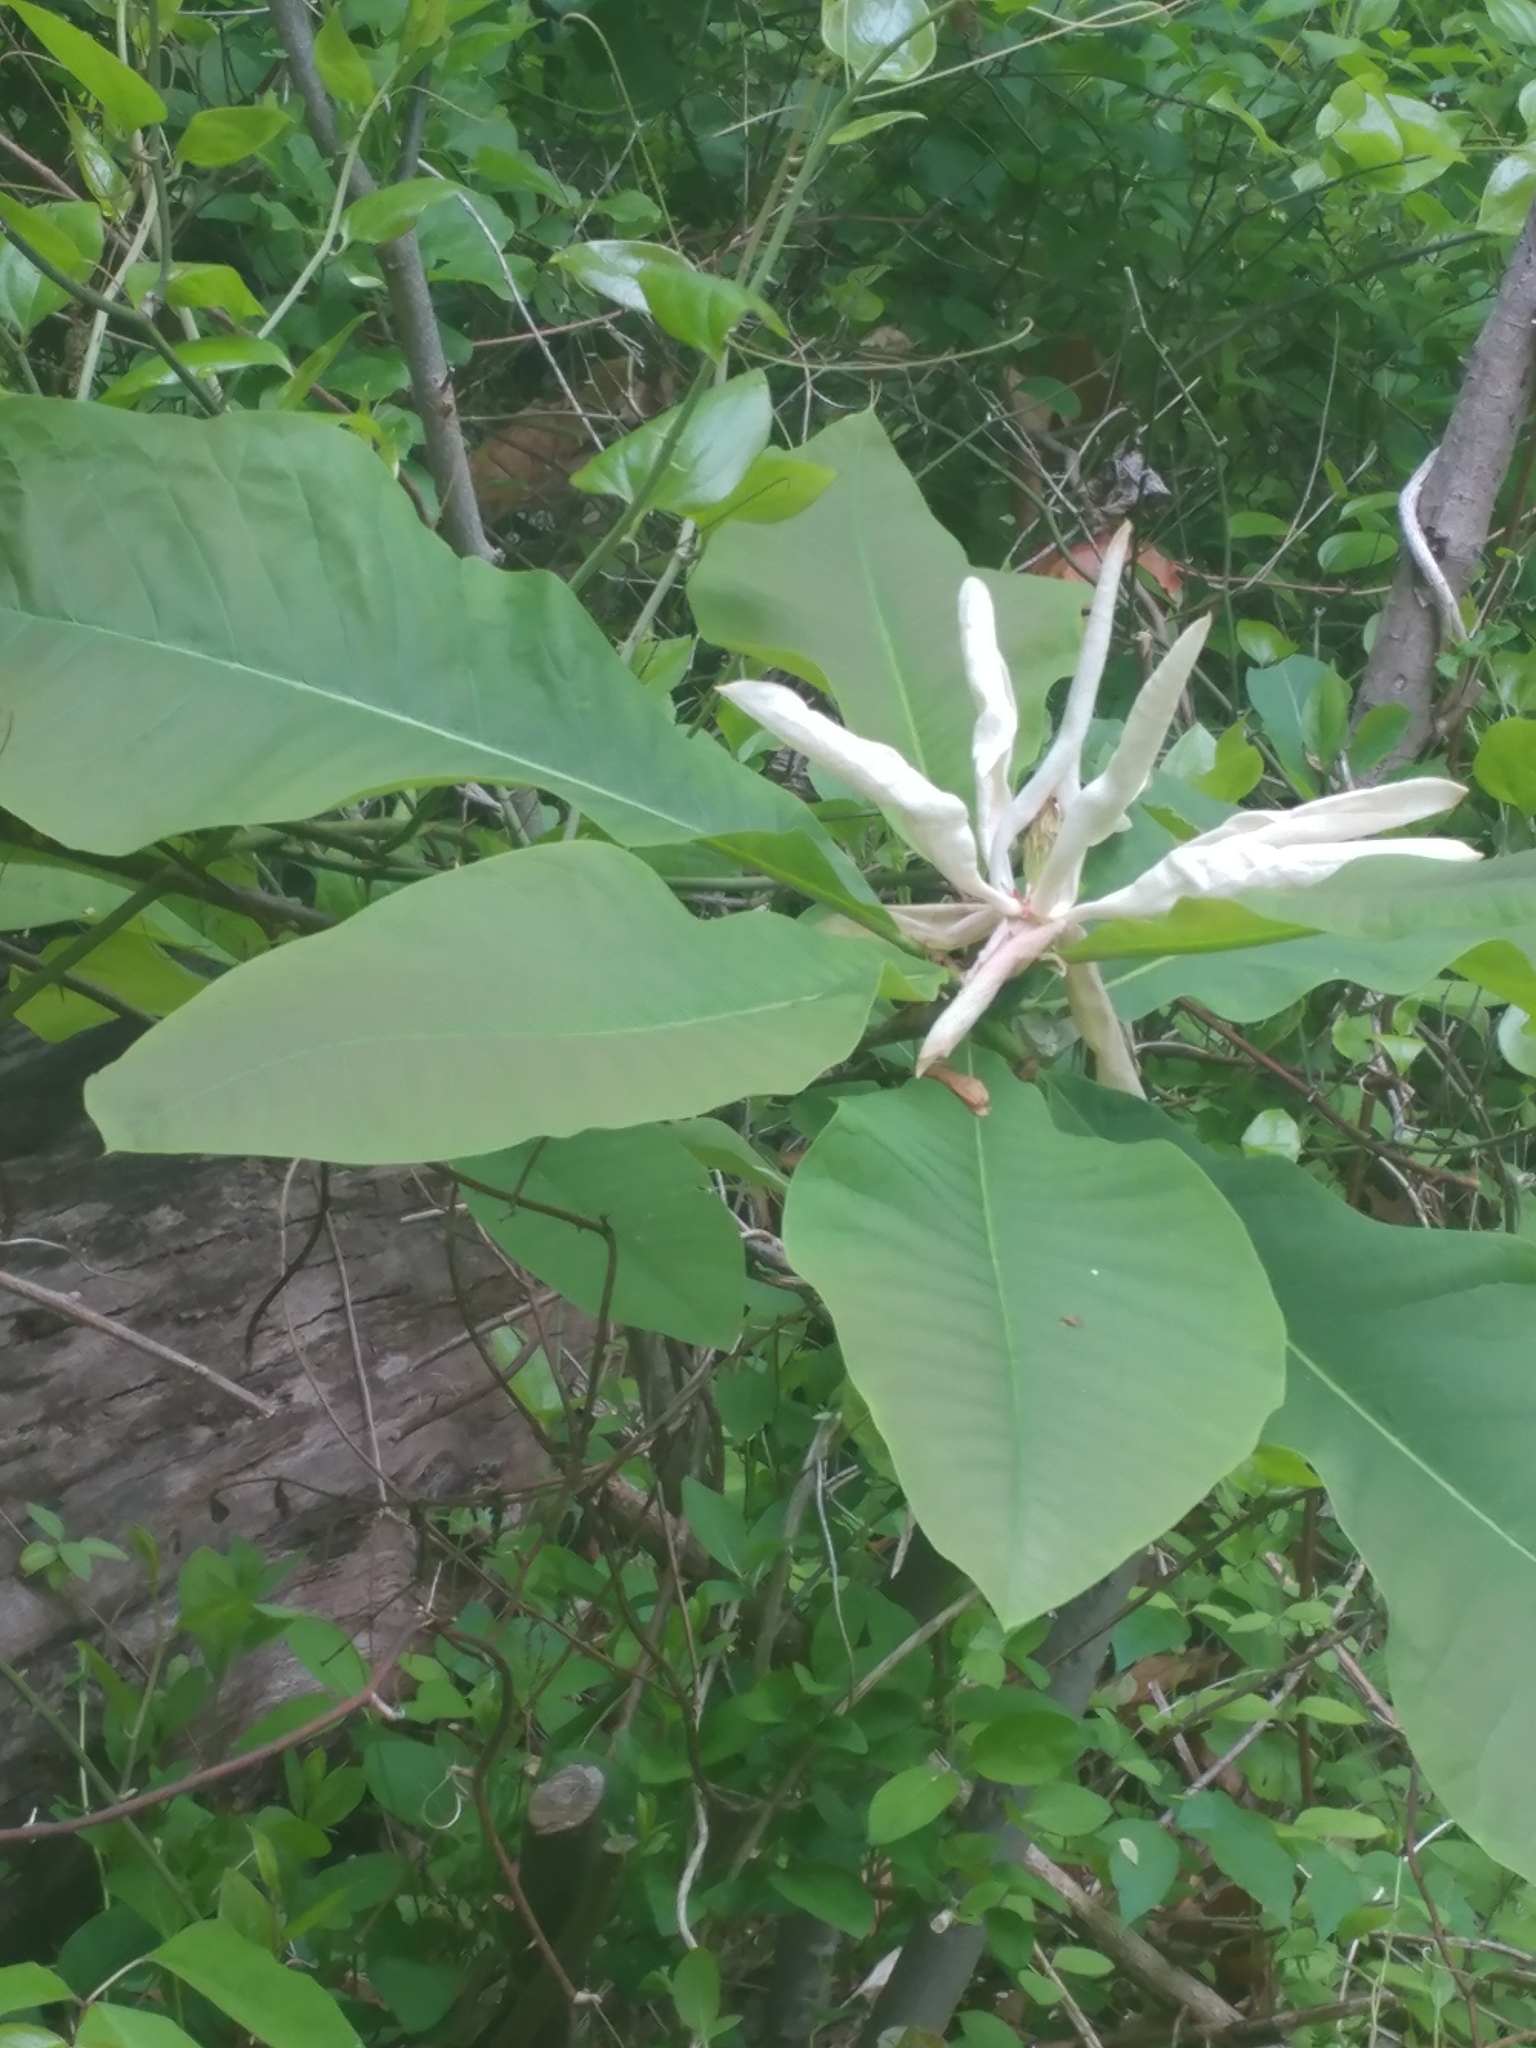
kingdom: Plantae
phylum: Tracheophyta
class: Magnoliopsida
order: Magnoliales
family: Magnoliaceae
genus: Magnolia
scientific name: Magnolia tripetala
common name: Umbrella magnolia
